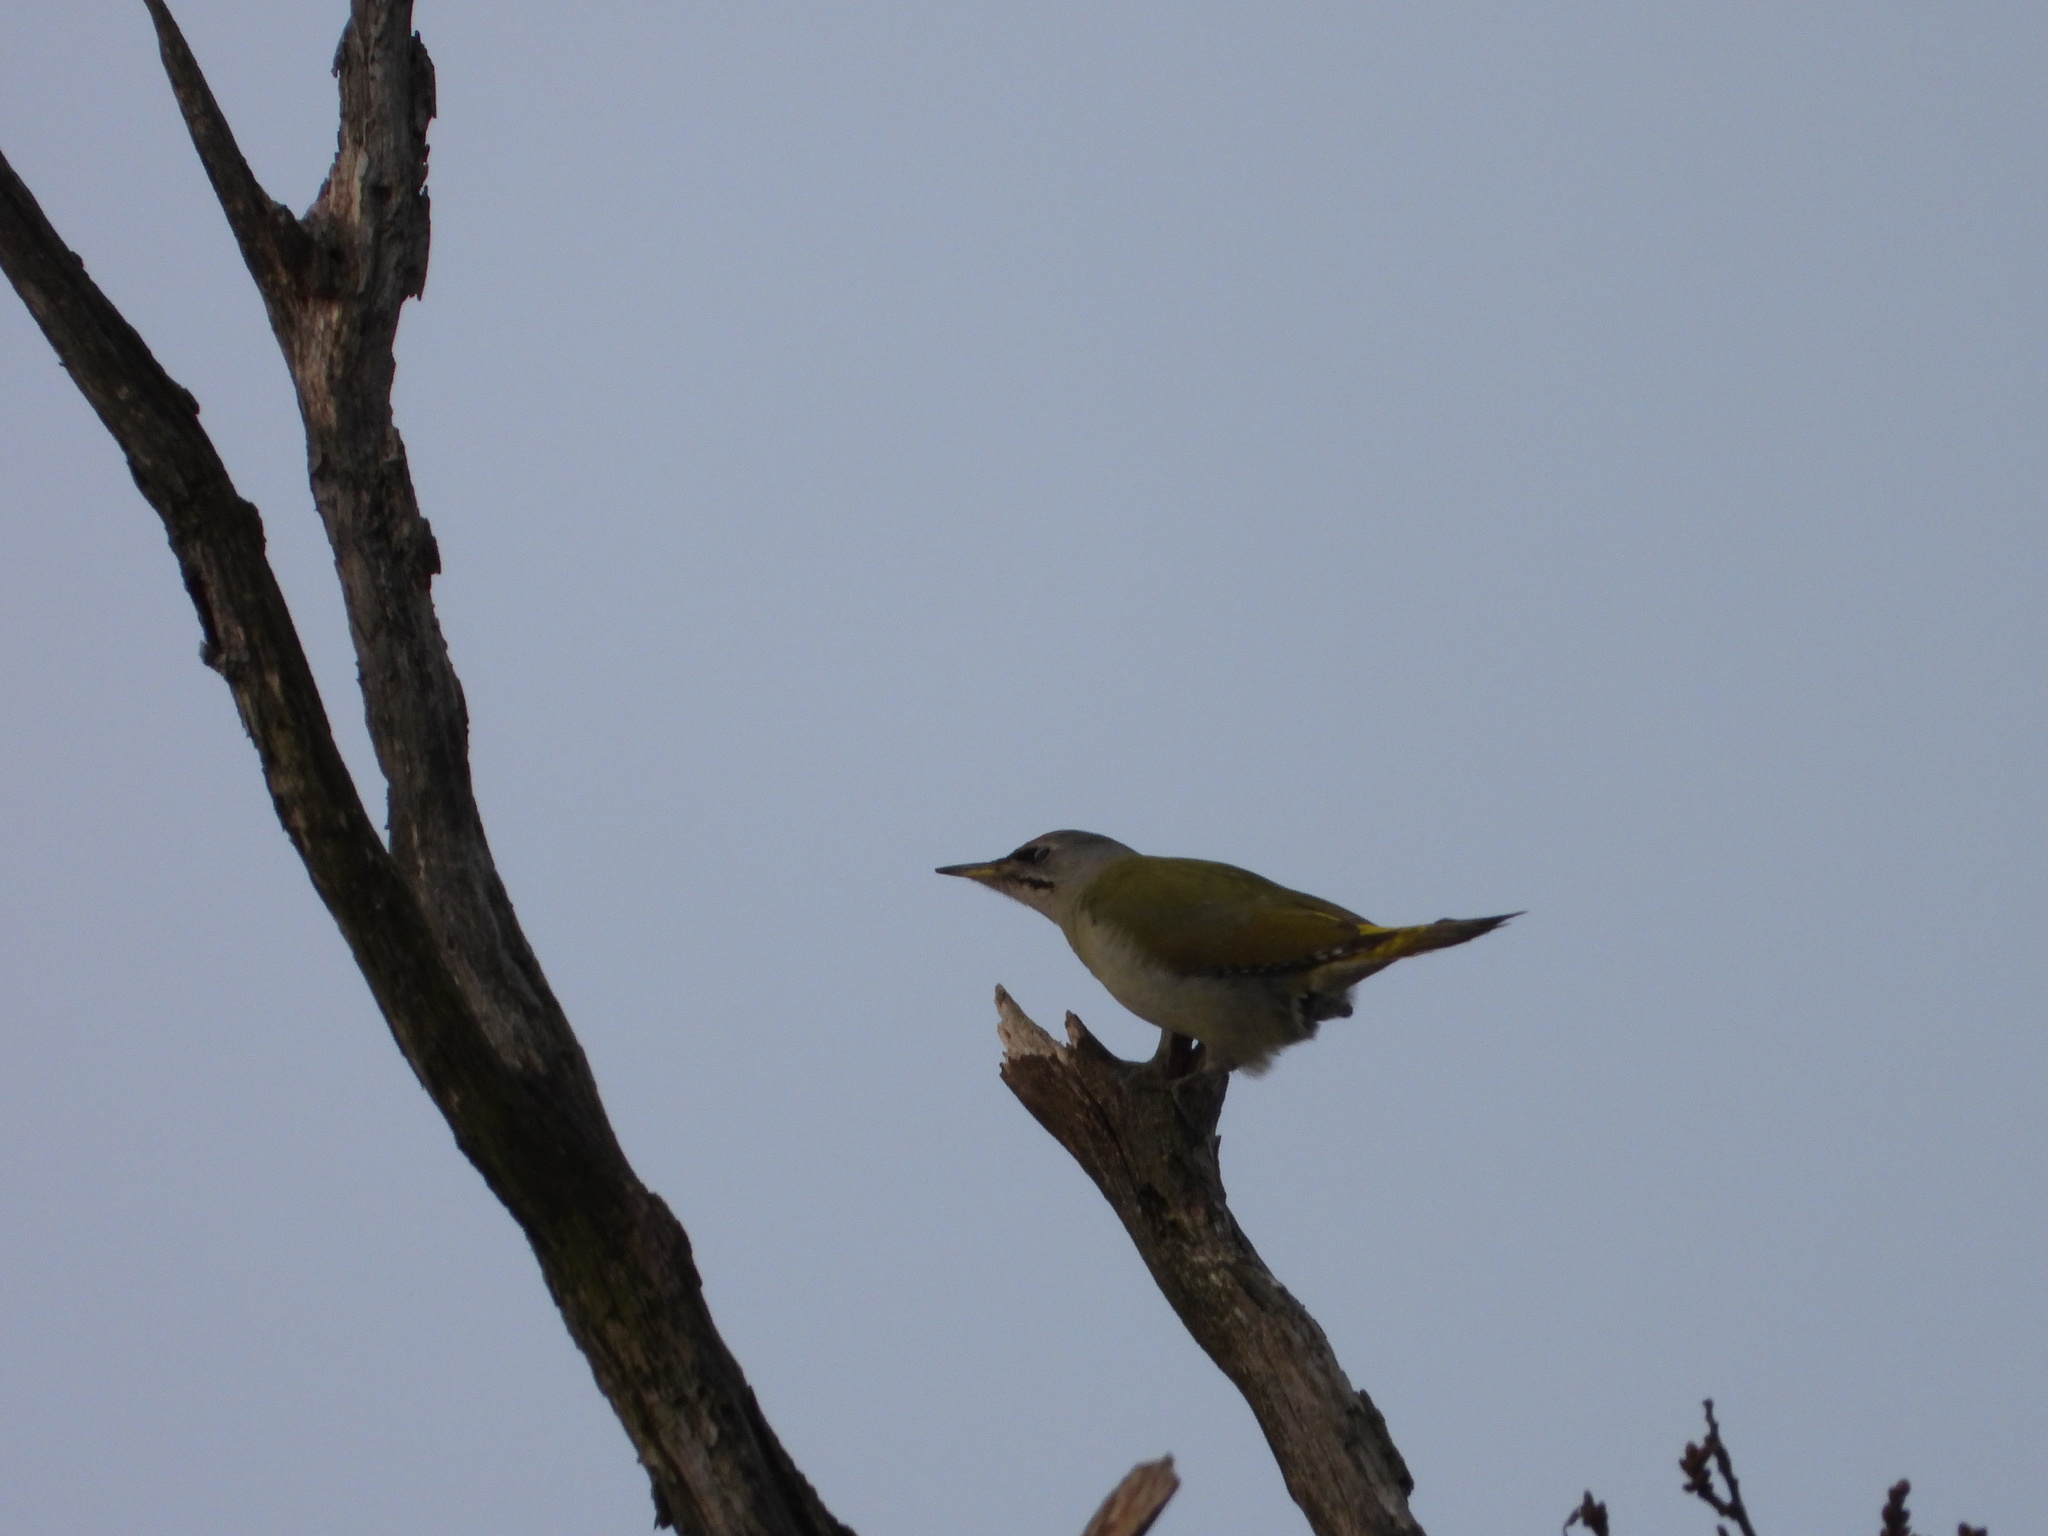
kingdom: Animalia
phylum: Chordata
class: Aves
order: Piciformes
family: Picidae
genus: Picus
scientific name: Picus canus
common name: Grey-headed woodpecker
